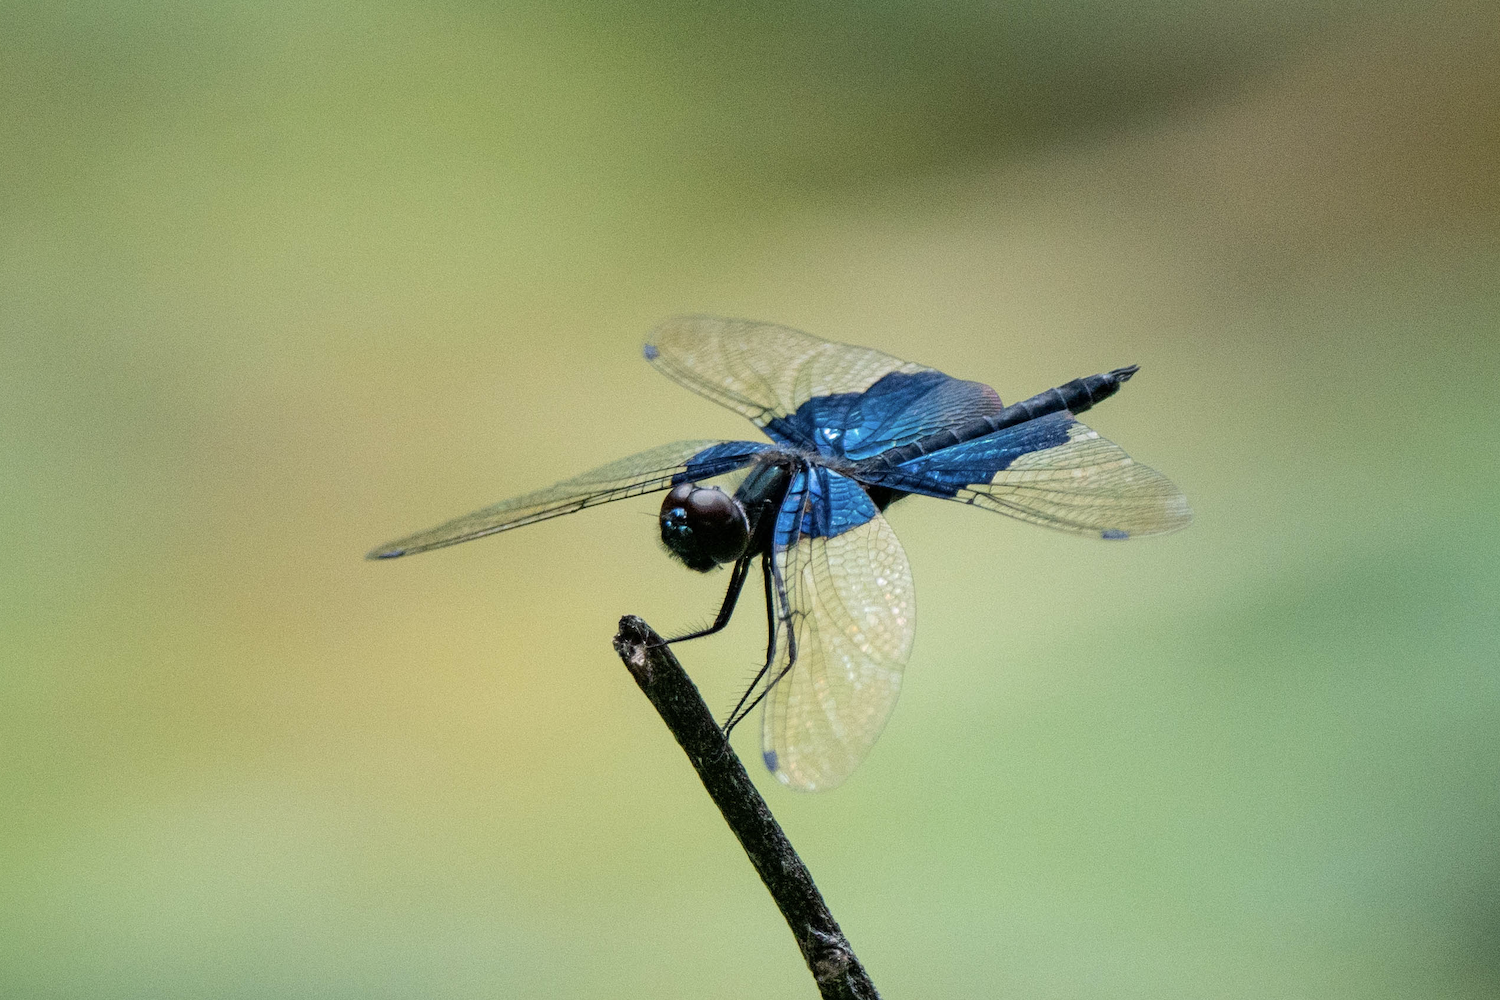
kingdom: Animalia
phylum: Arthropoda
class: Insecta
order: Odonata
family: Libellulidae
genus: Rhyothemis
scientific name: Rhyothemis triangularis
